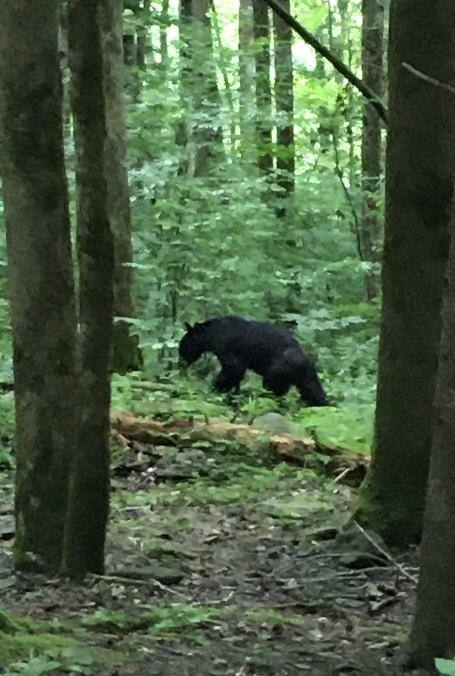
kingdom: Animalia
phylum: Chordata
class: Mammalia
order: Carnivora
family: Ursidae
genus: Ursus
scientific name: Ursus americanus
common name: American black bear
